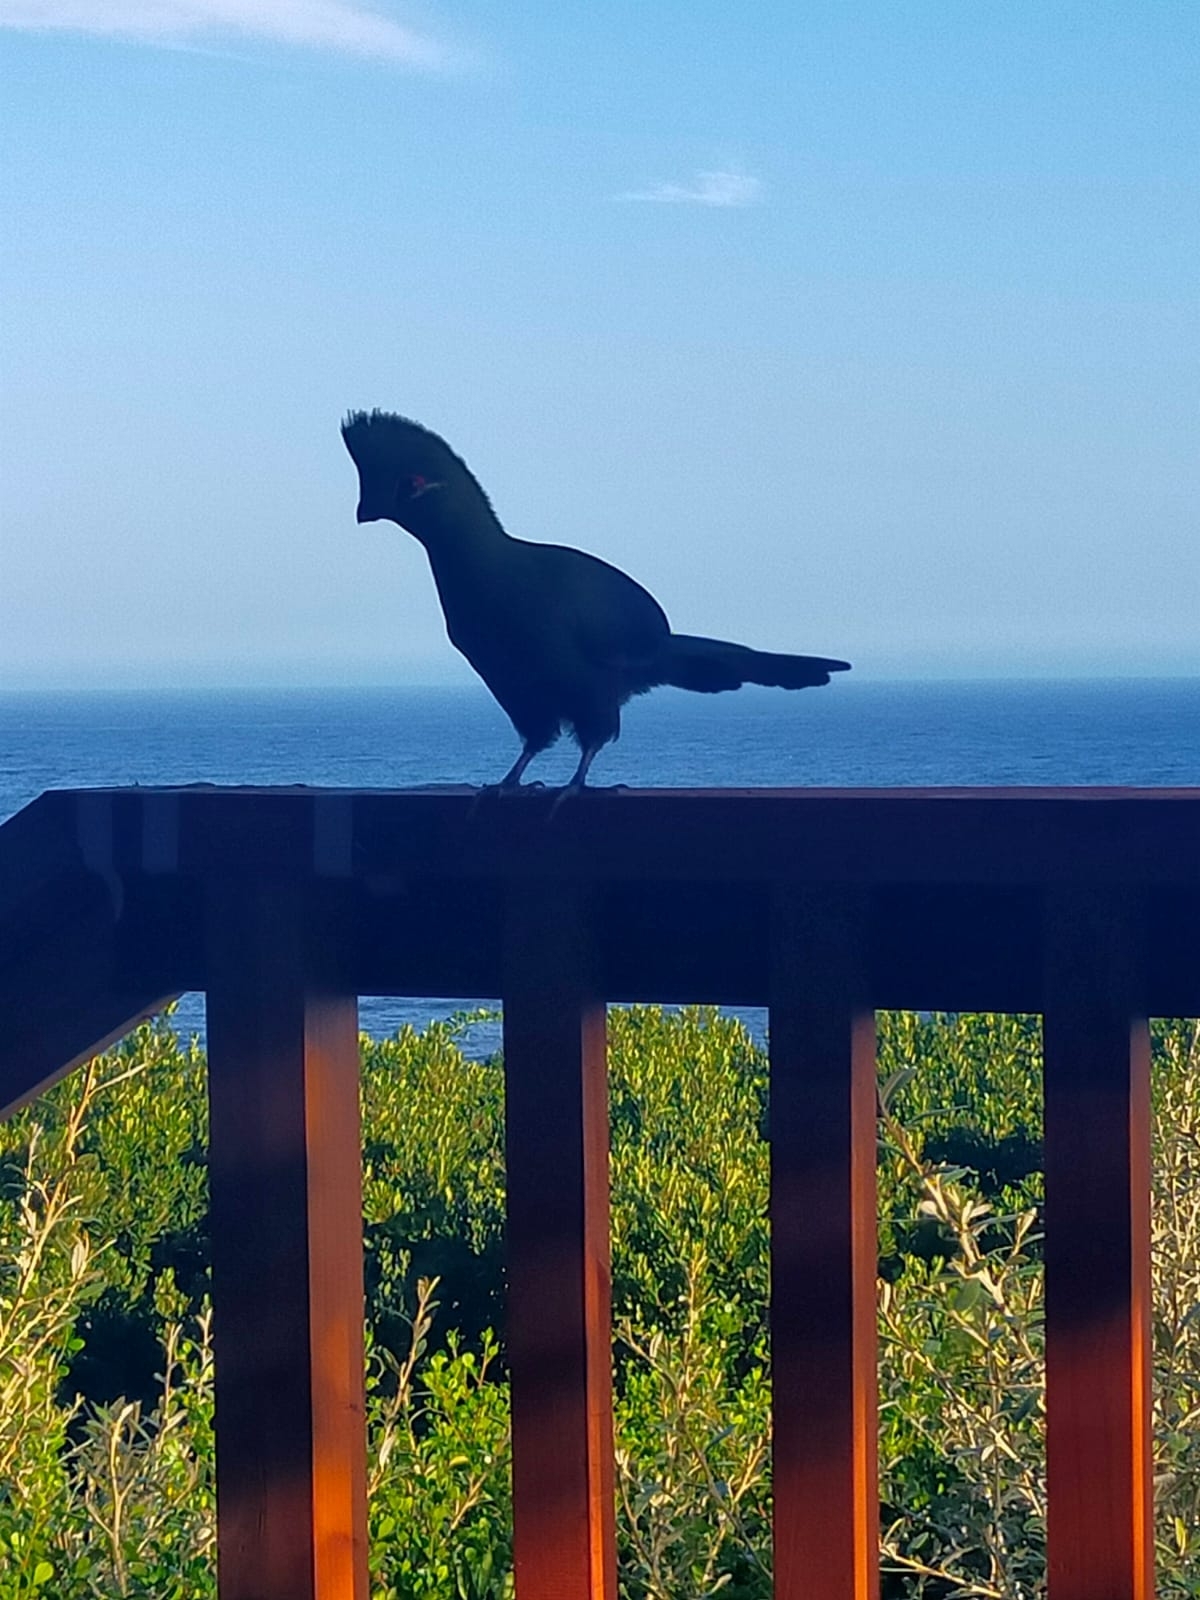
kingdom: Animalia
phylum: Chordata
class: Aves
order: Musophagiformes
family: Musophagidae
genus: Tauraco
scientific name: Tauraco corythaix
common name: Knysna turaco
